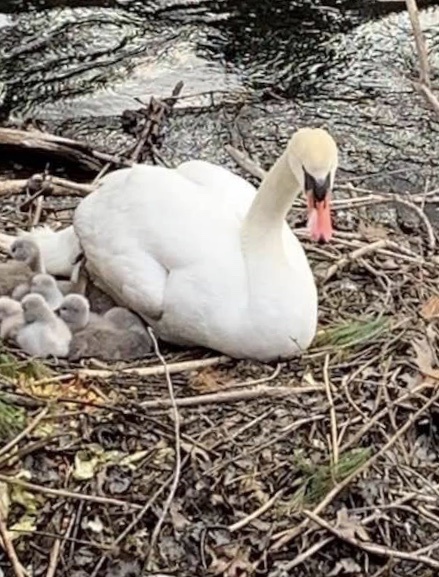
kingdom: Animalia
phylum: Chordata
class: Aves
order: Anseriformes
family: Anatidae
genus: Cygnus
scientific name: Cygnus olor
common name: Mute swan
